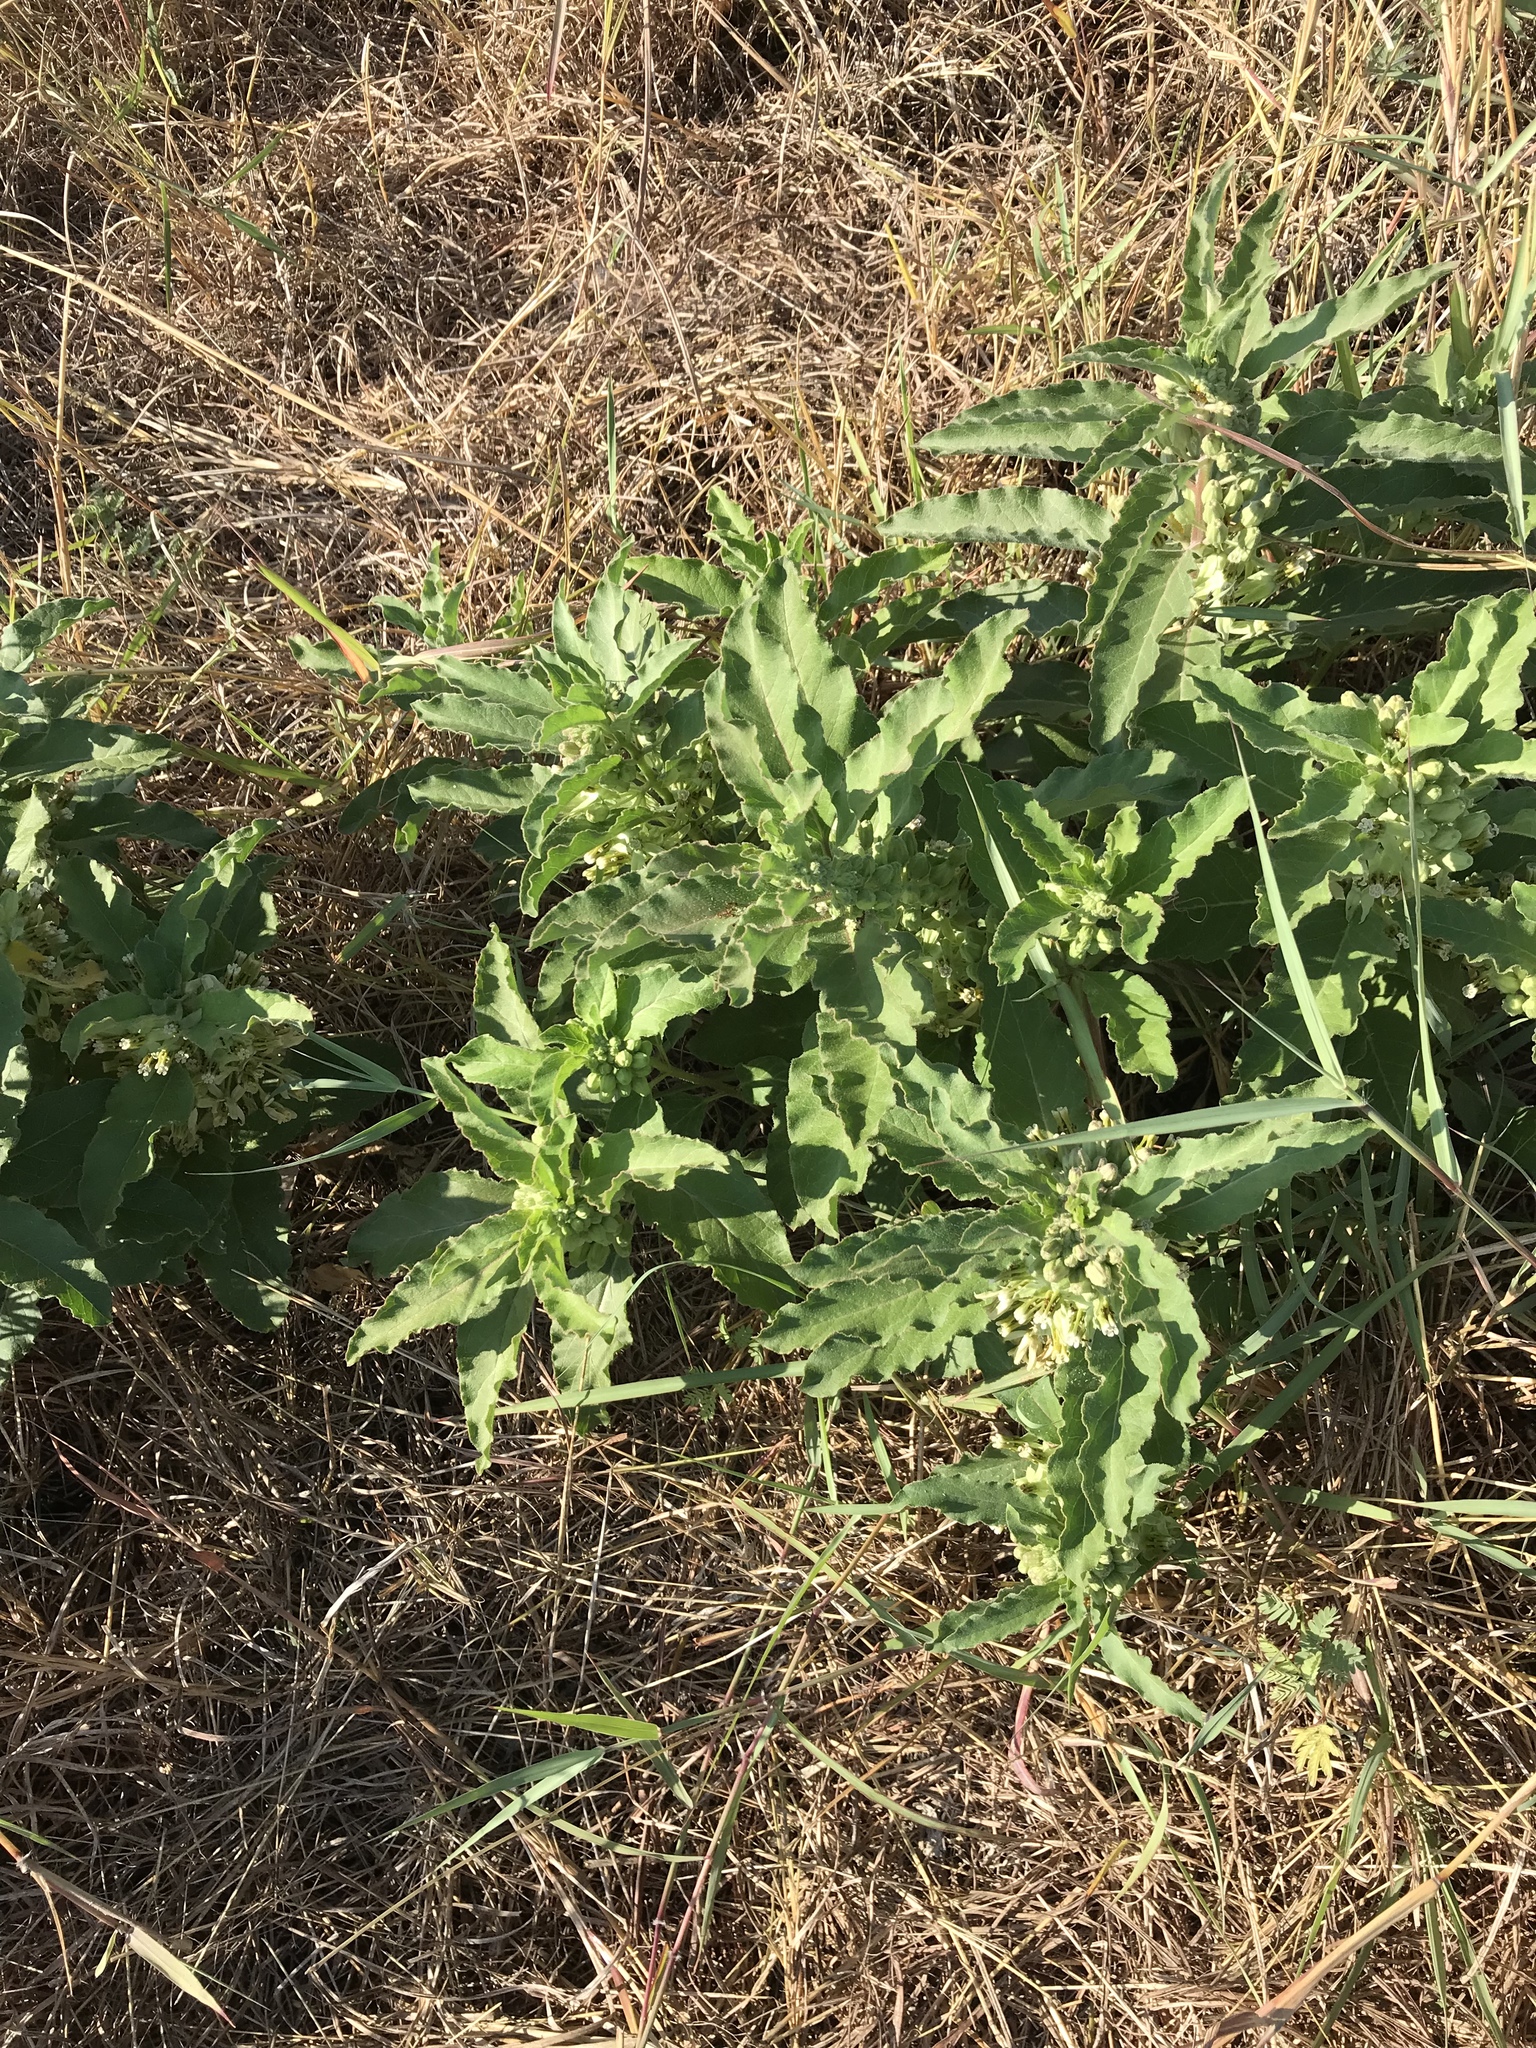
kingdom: Plantae
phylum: Tracheophyta
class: Magnoliopsida
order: Gentianales
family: Apocynaceae
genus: Asclepias
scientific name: Asclepias oenotheroides
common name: Zizotes milkweed
